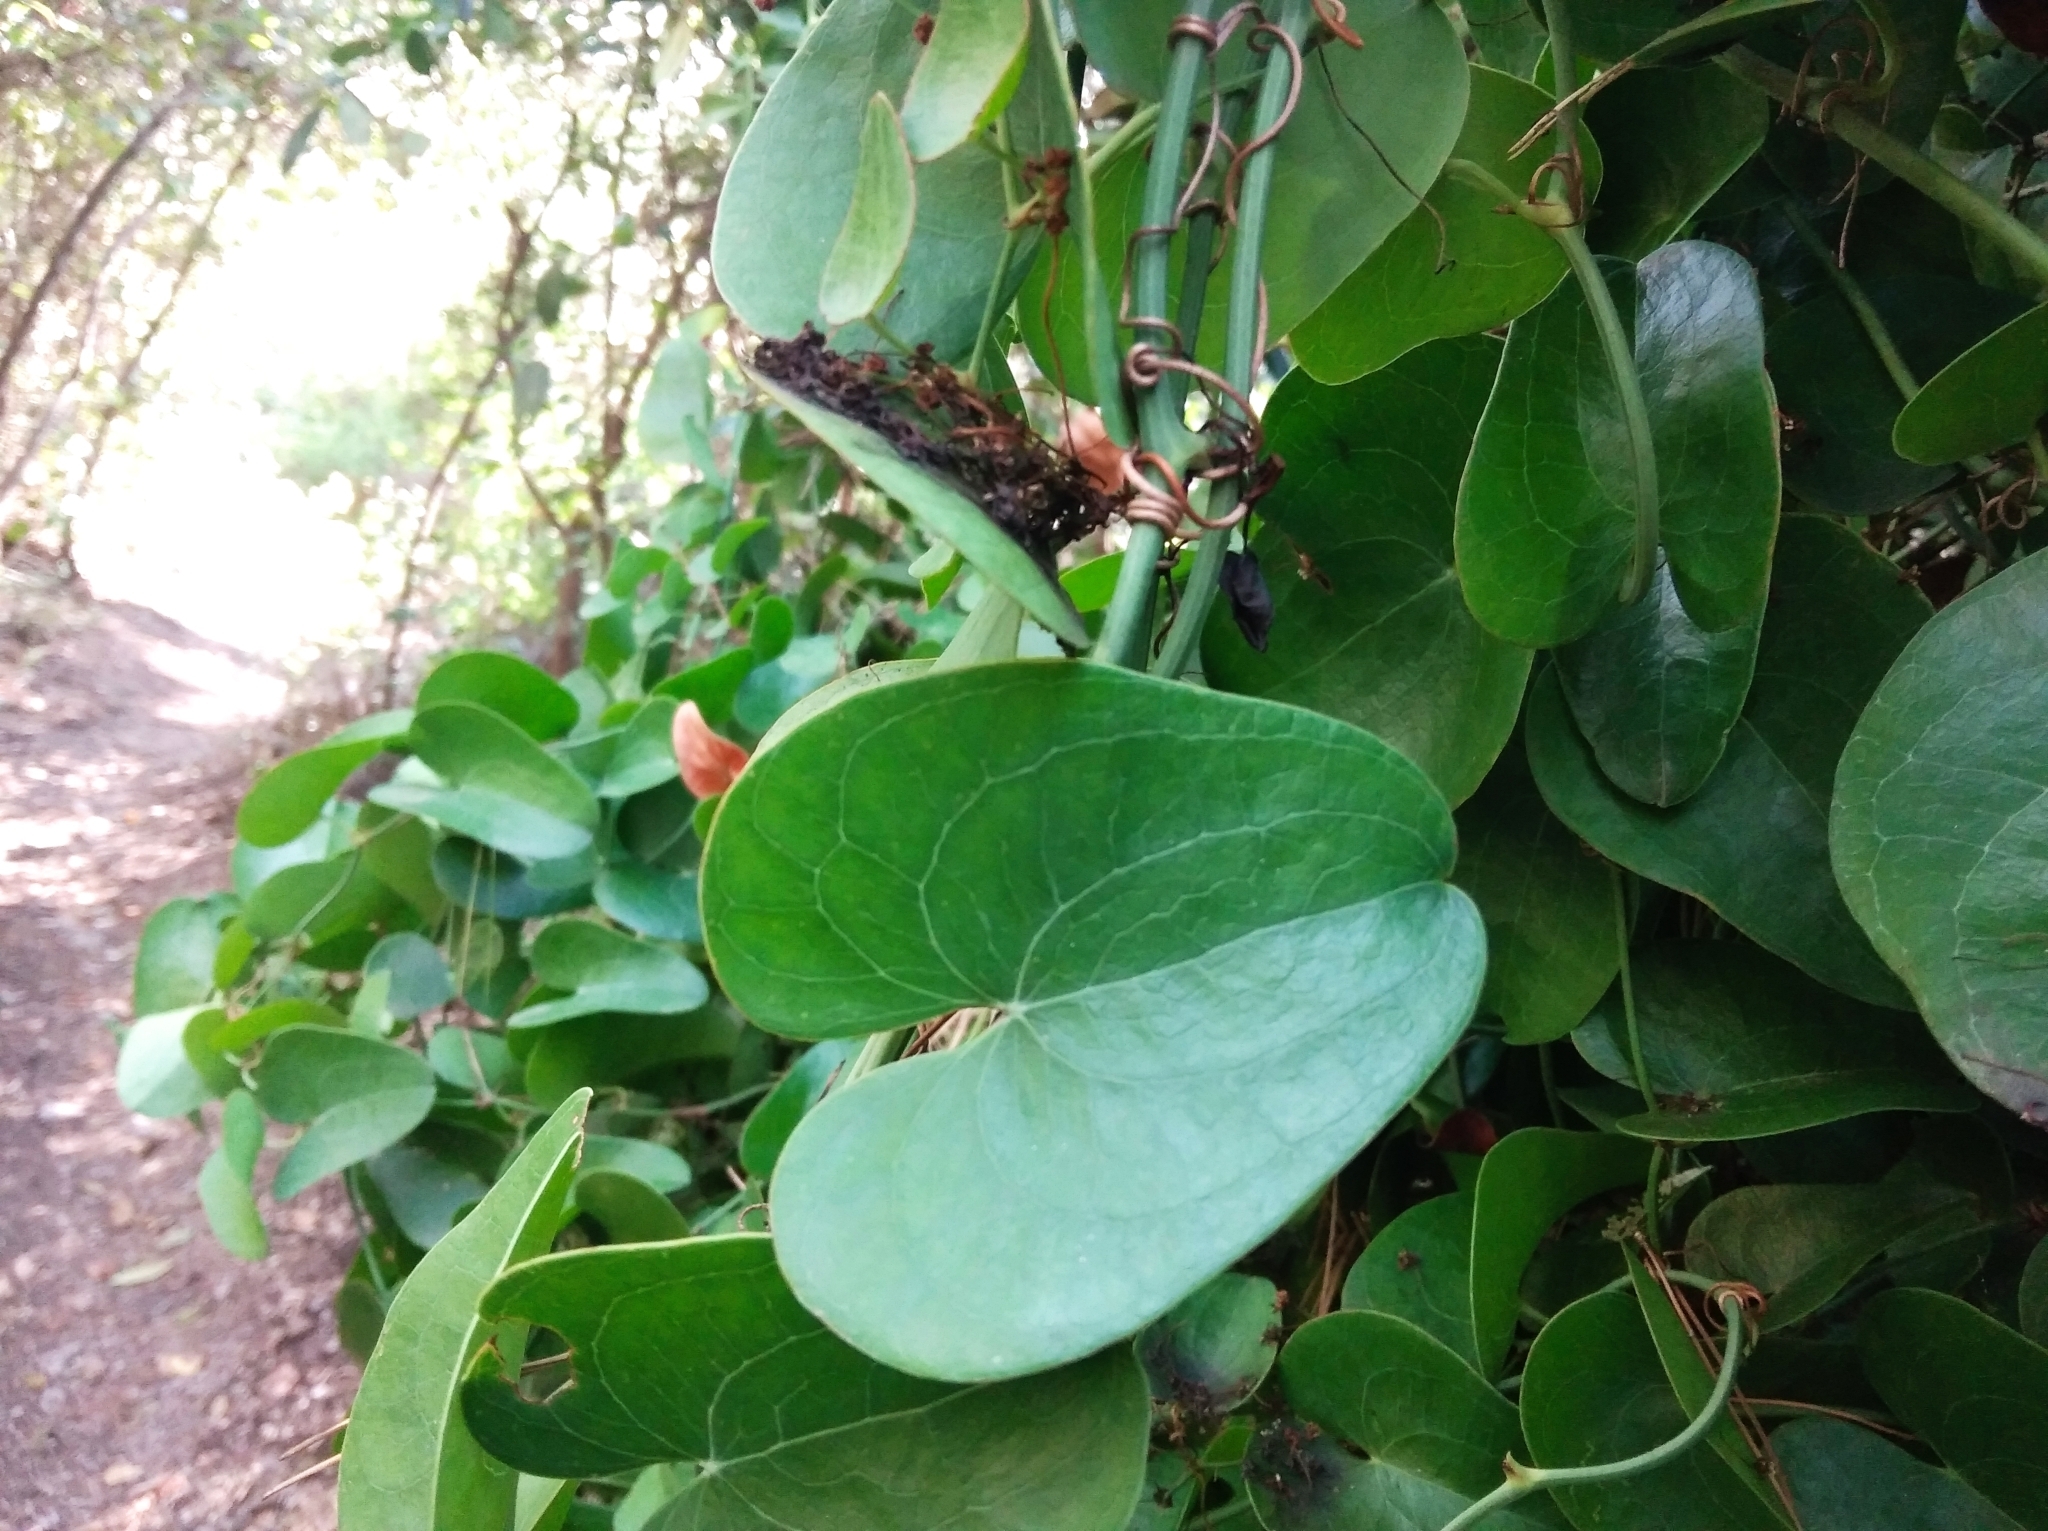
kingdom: Plantae
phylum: Tracheophyta
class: Liliopsida
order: Liliales
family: Smilacaceae
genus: Smilax
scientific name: Smilax aspera
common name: Common smilax
